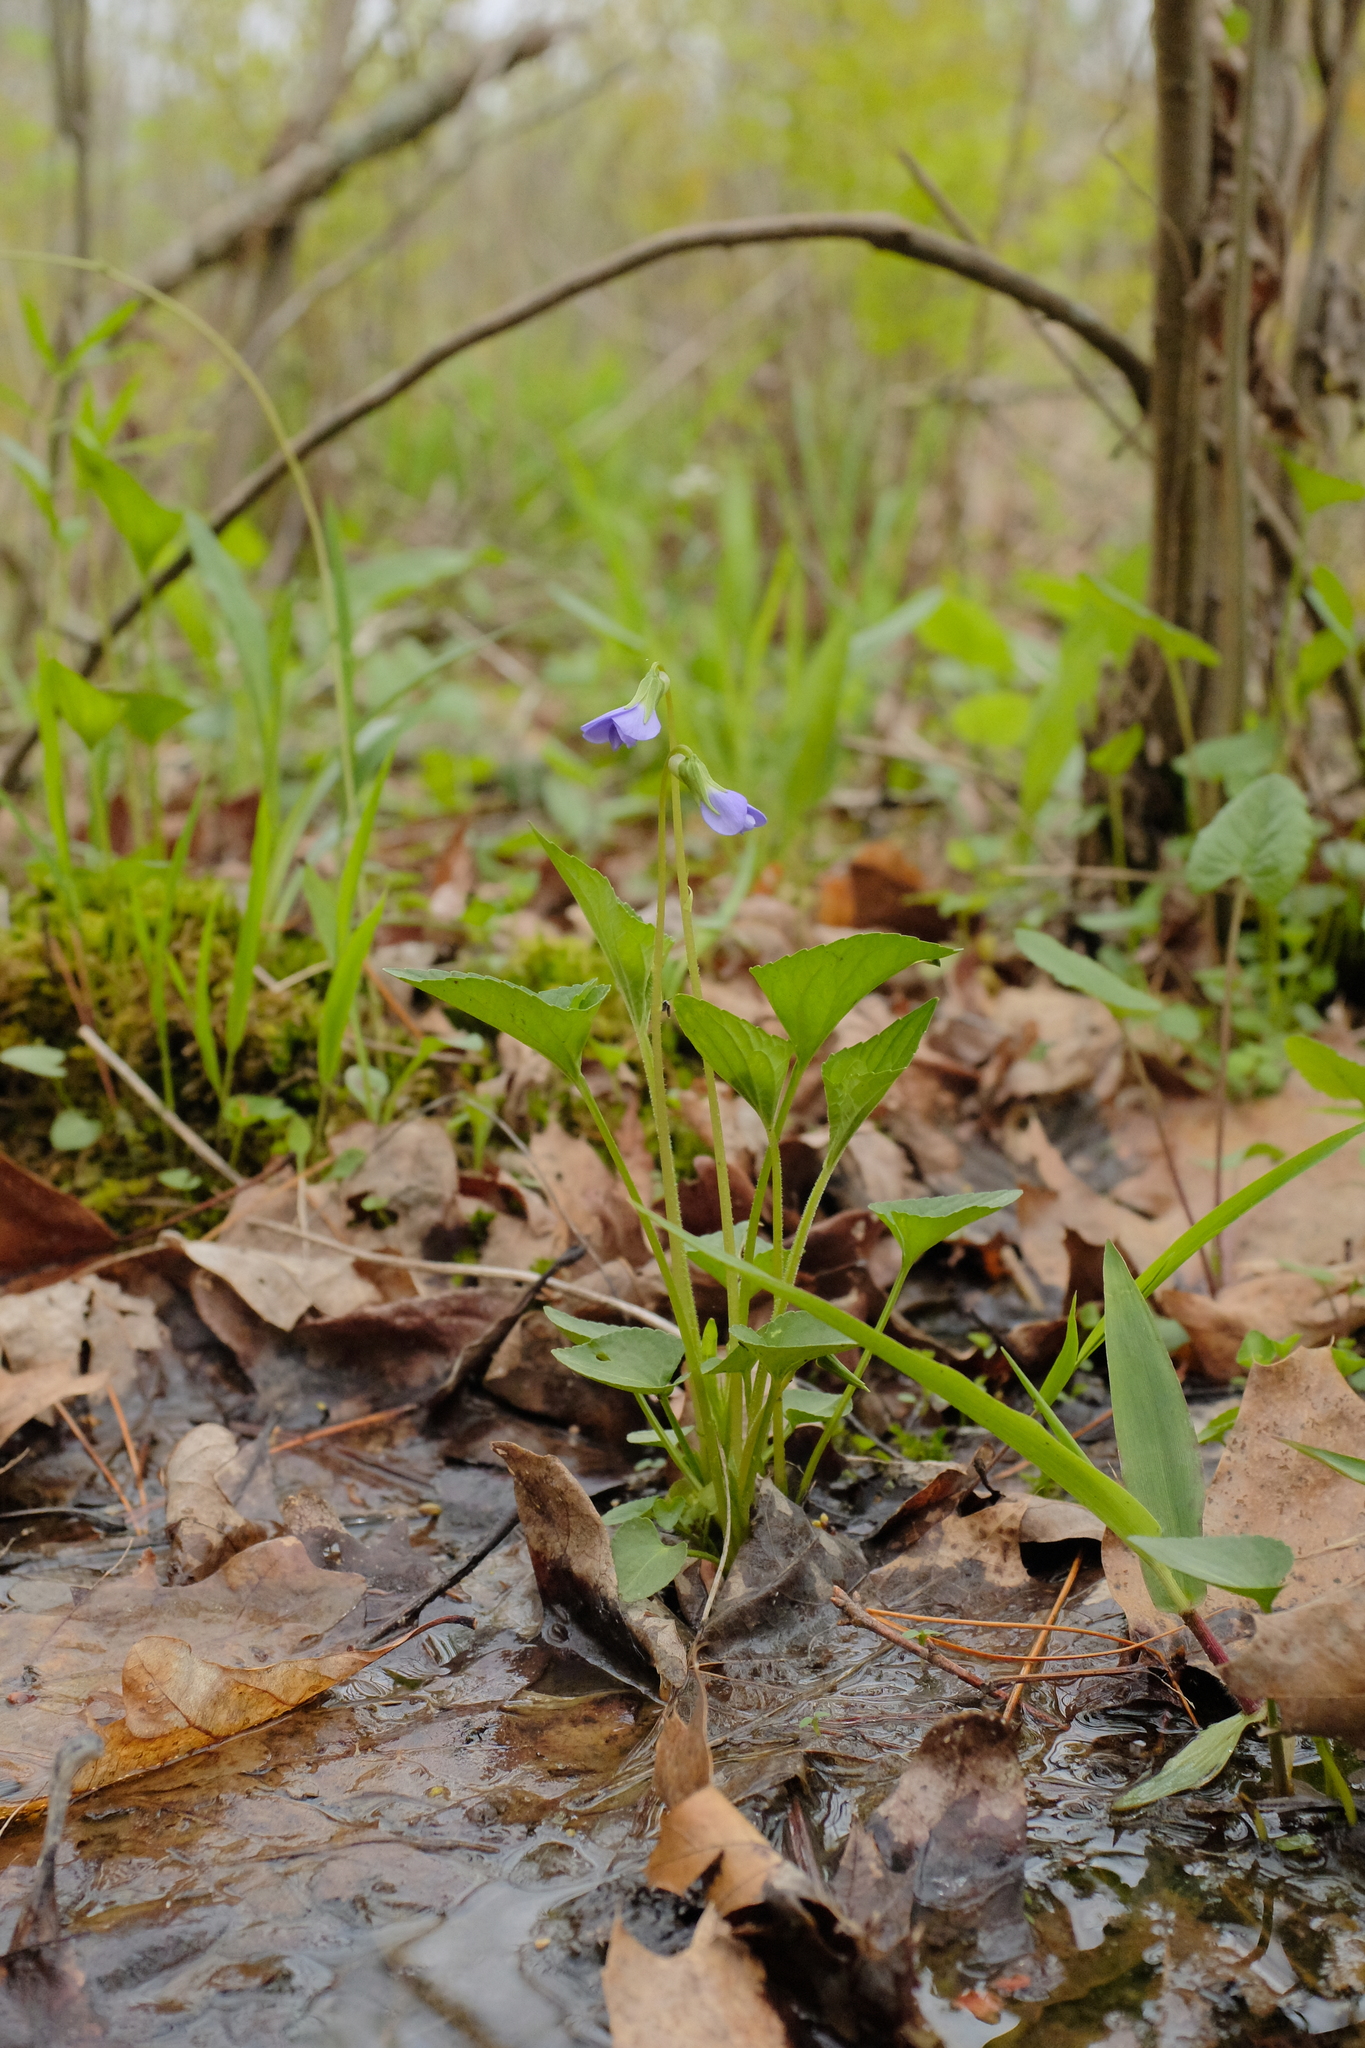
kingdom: Plantae
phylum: Tracheophyta
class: Magnoliopsida
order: Malpighiales
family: Violaceae
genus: Viola
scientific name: Viola cucullata
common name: Marsh blue violet
